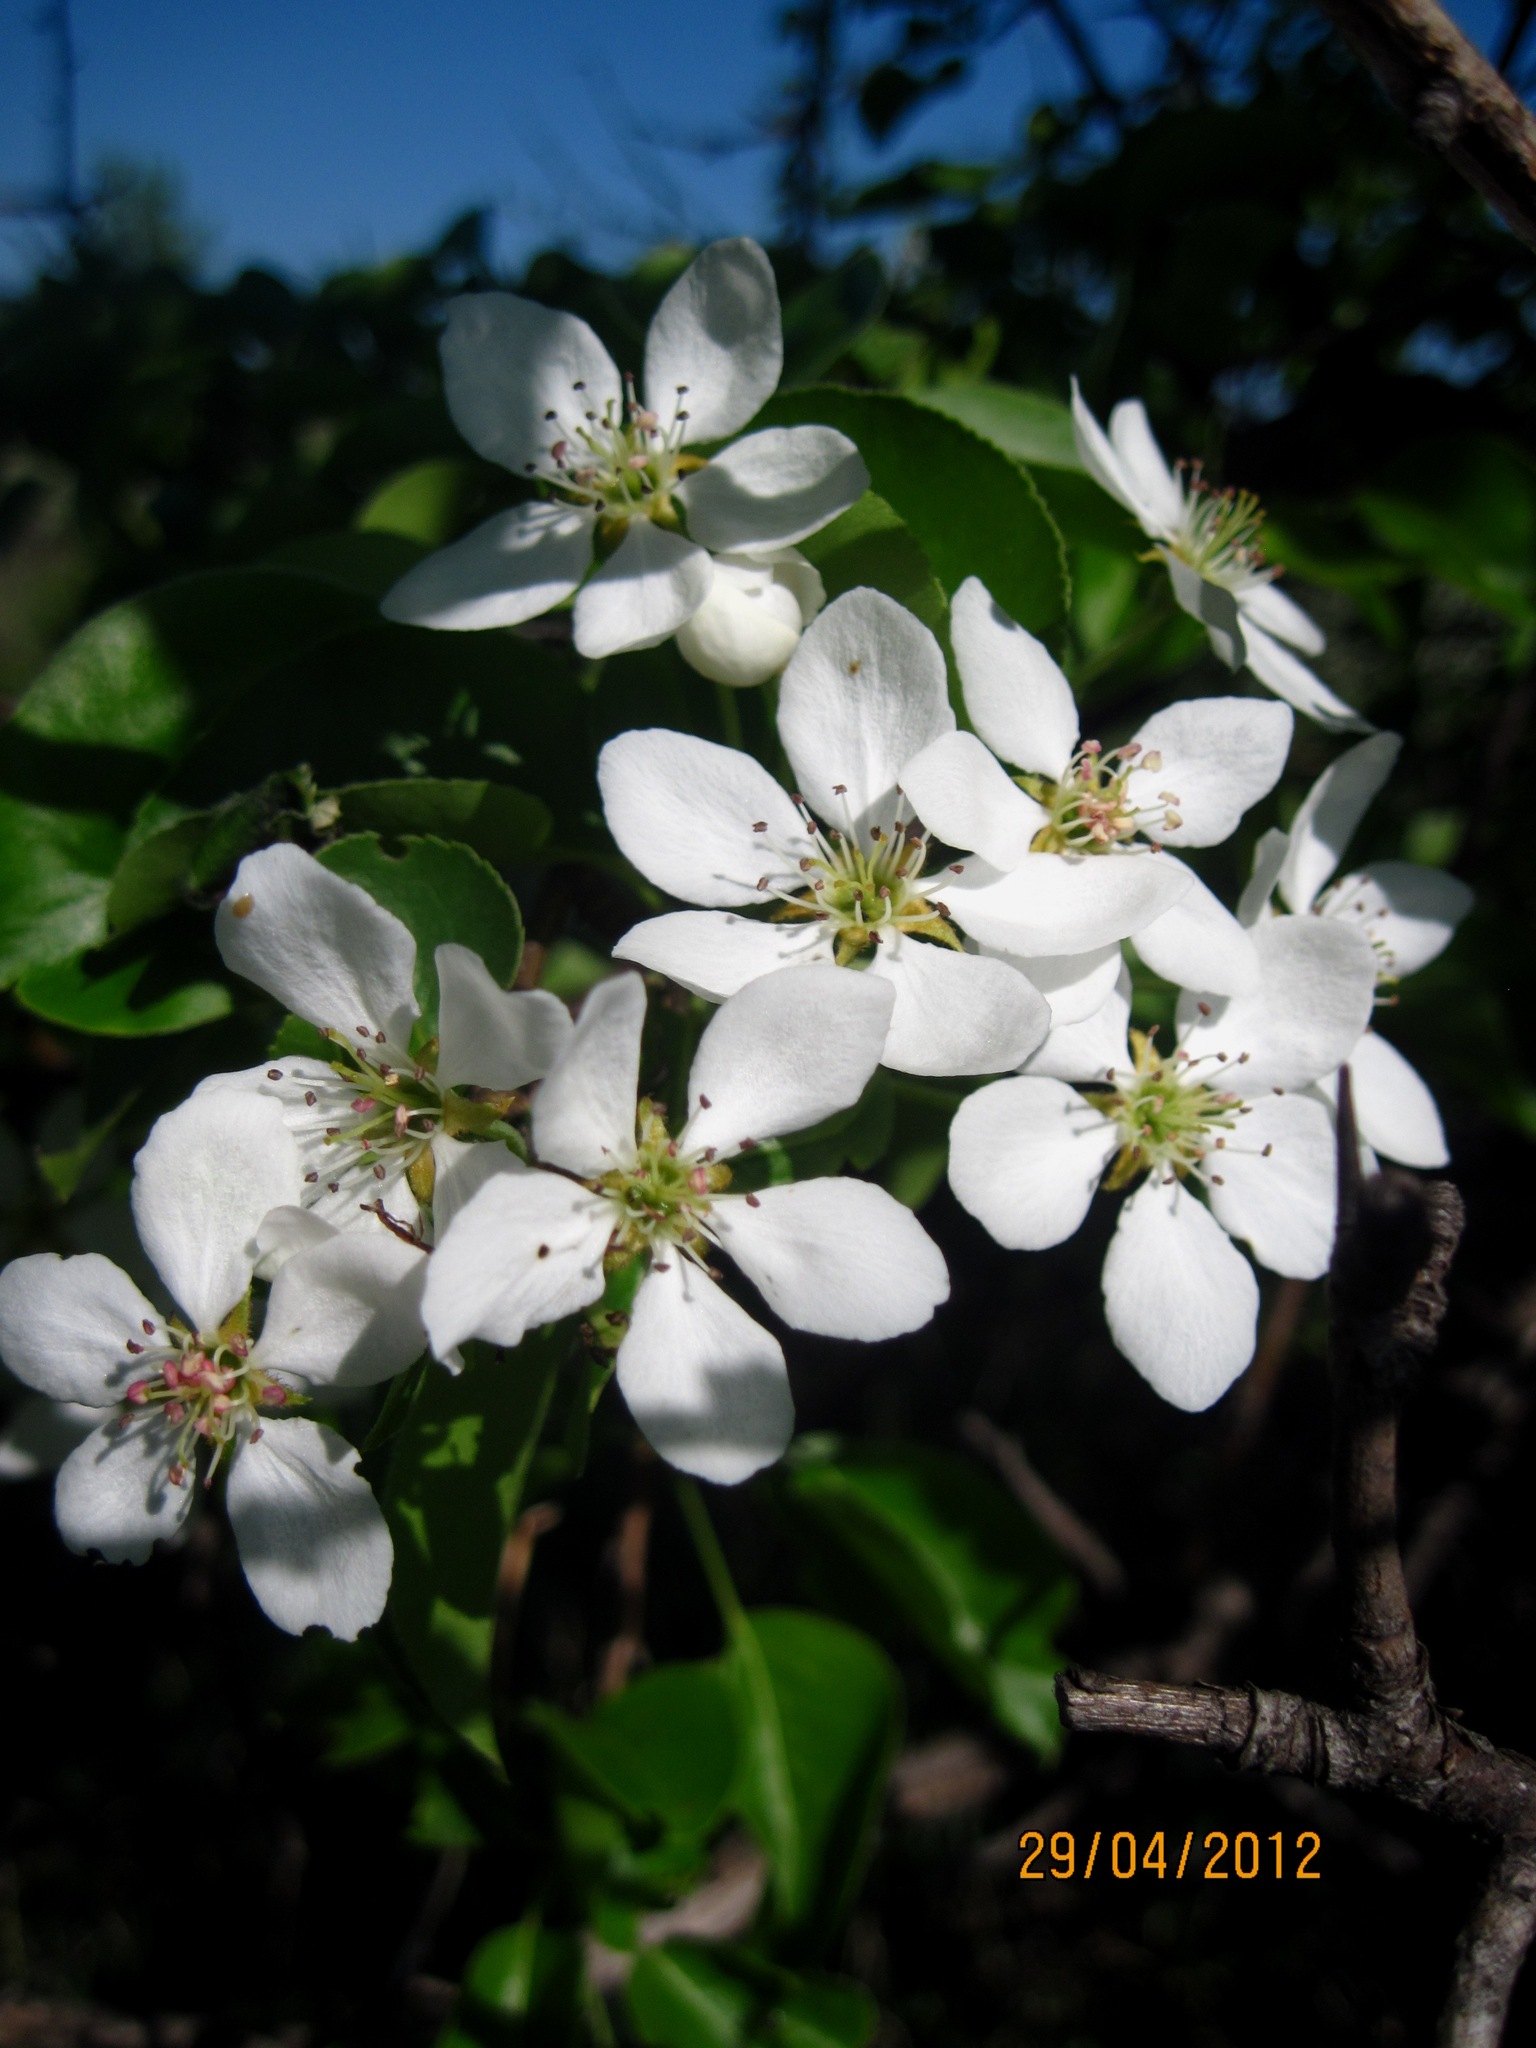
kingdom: Plantae
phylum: Tracheophyta
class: Magnoliopsida
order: Rosales
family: Rosaceae
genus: Pyrus
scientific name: Pyrus communis
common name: Pear
